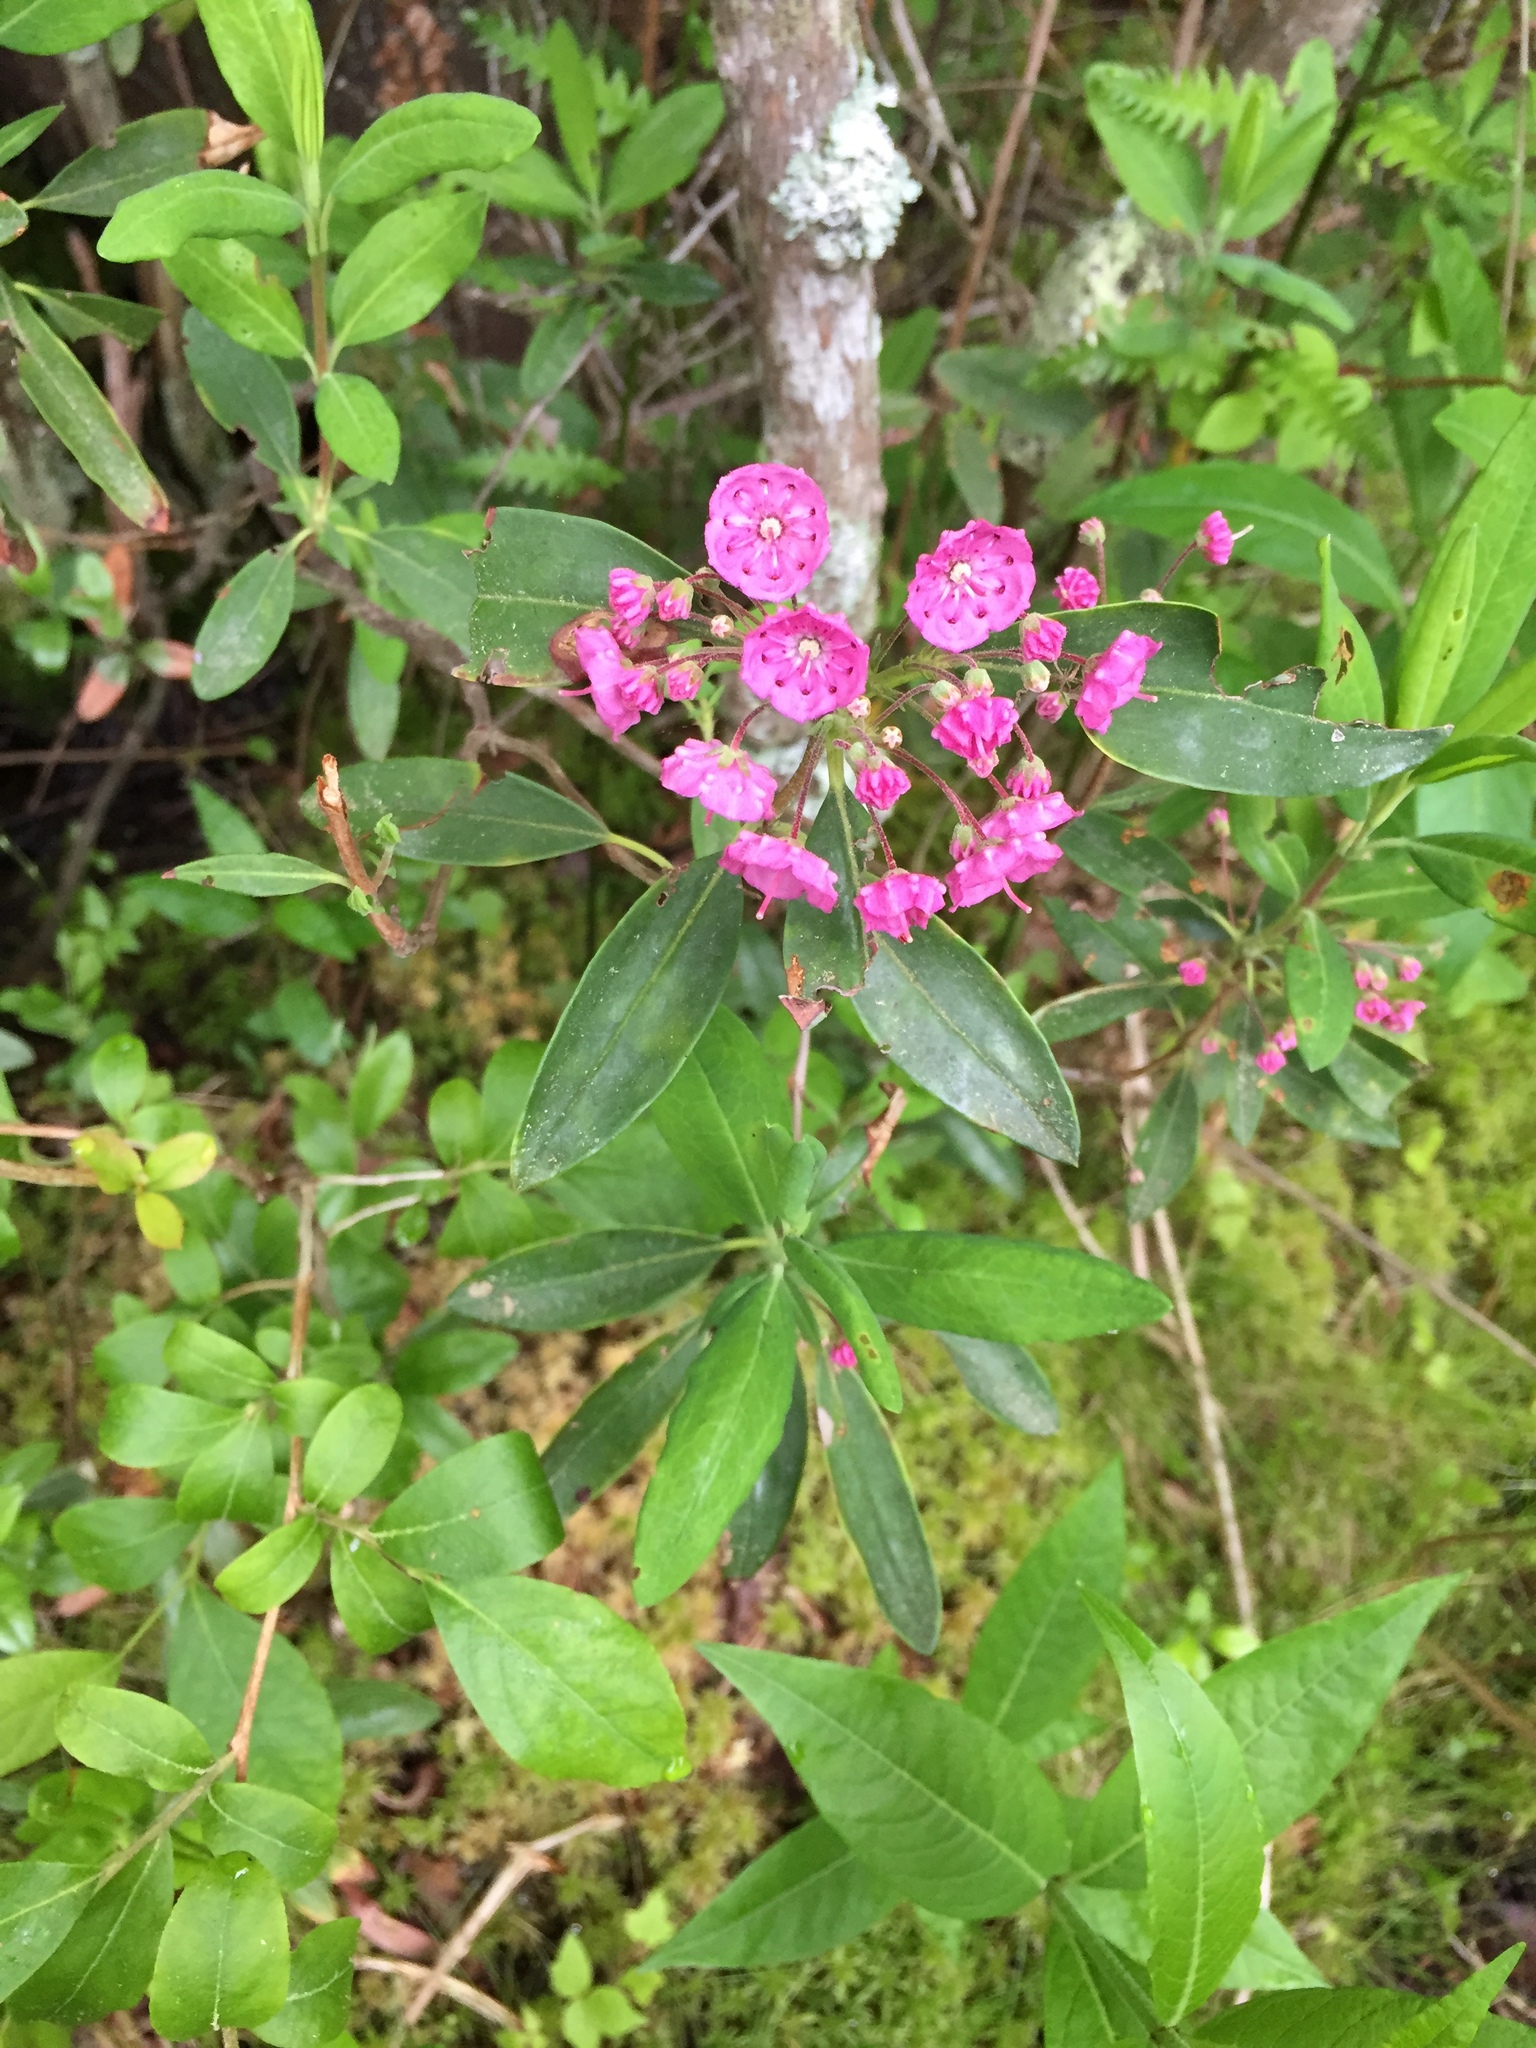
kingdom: Plantae
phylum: Tracheophyta
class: Magnoliopsida
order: Ericales
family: Ericaceae
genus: Kalmia
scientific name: Kalmia angustifolia
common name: Sheep-laurel
